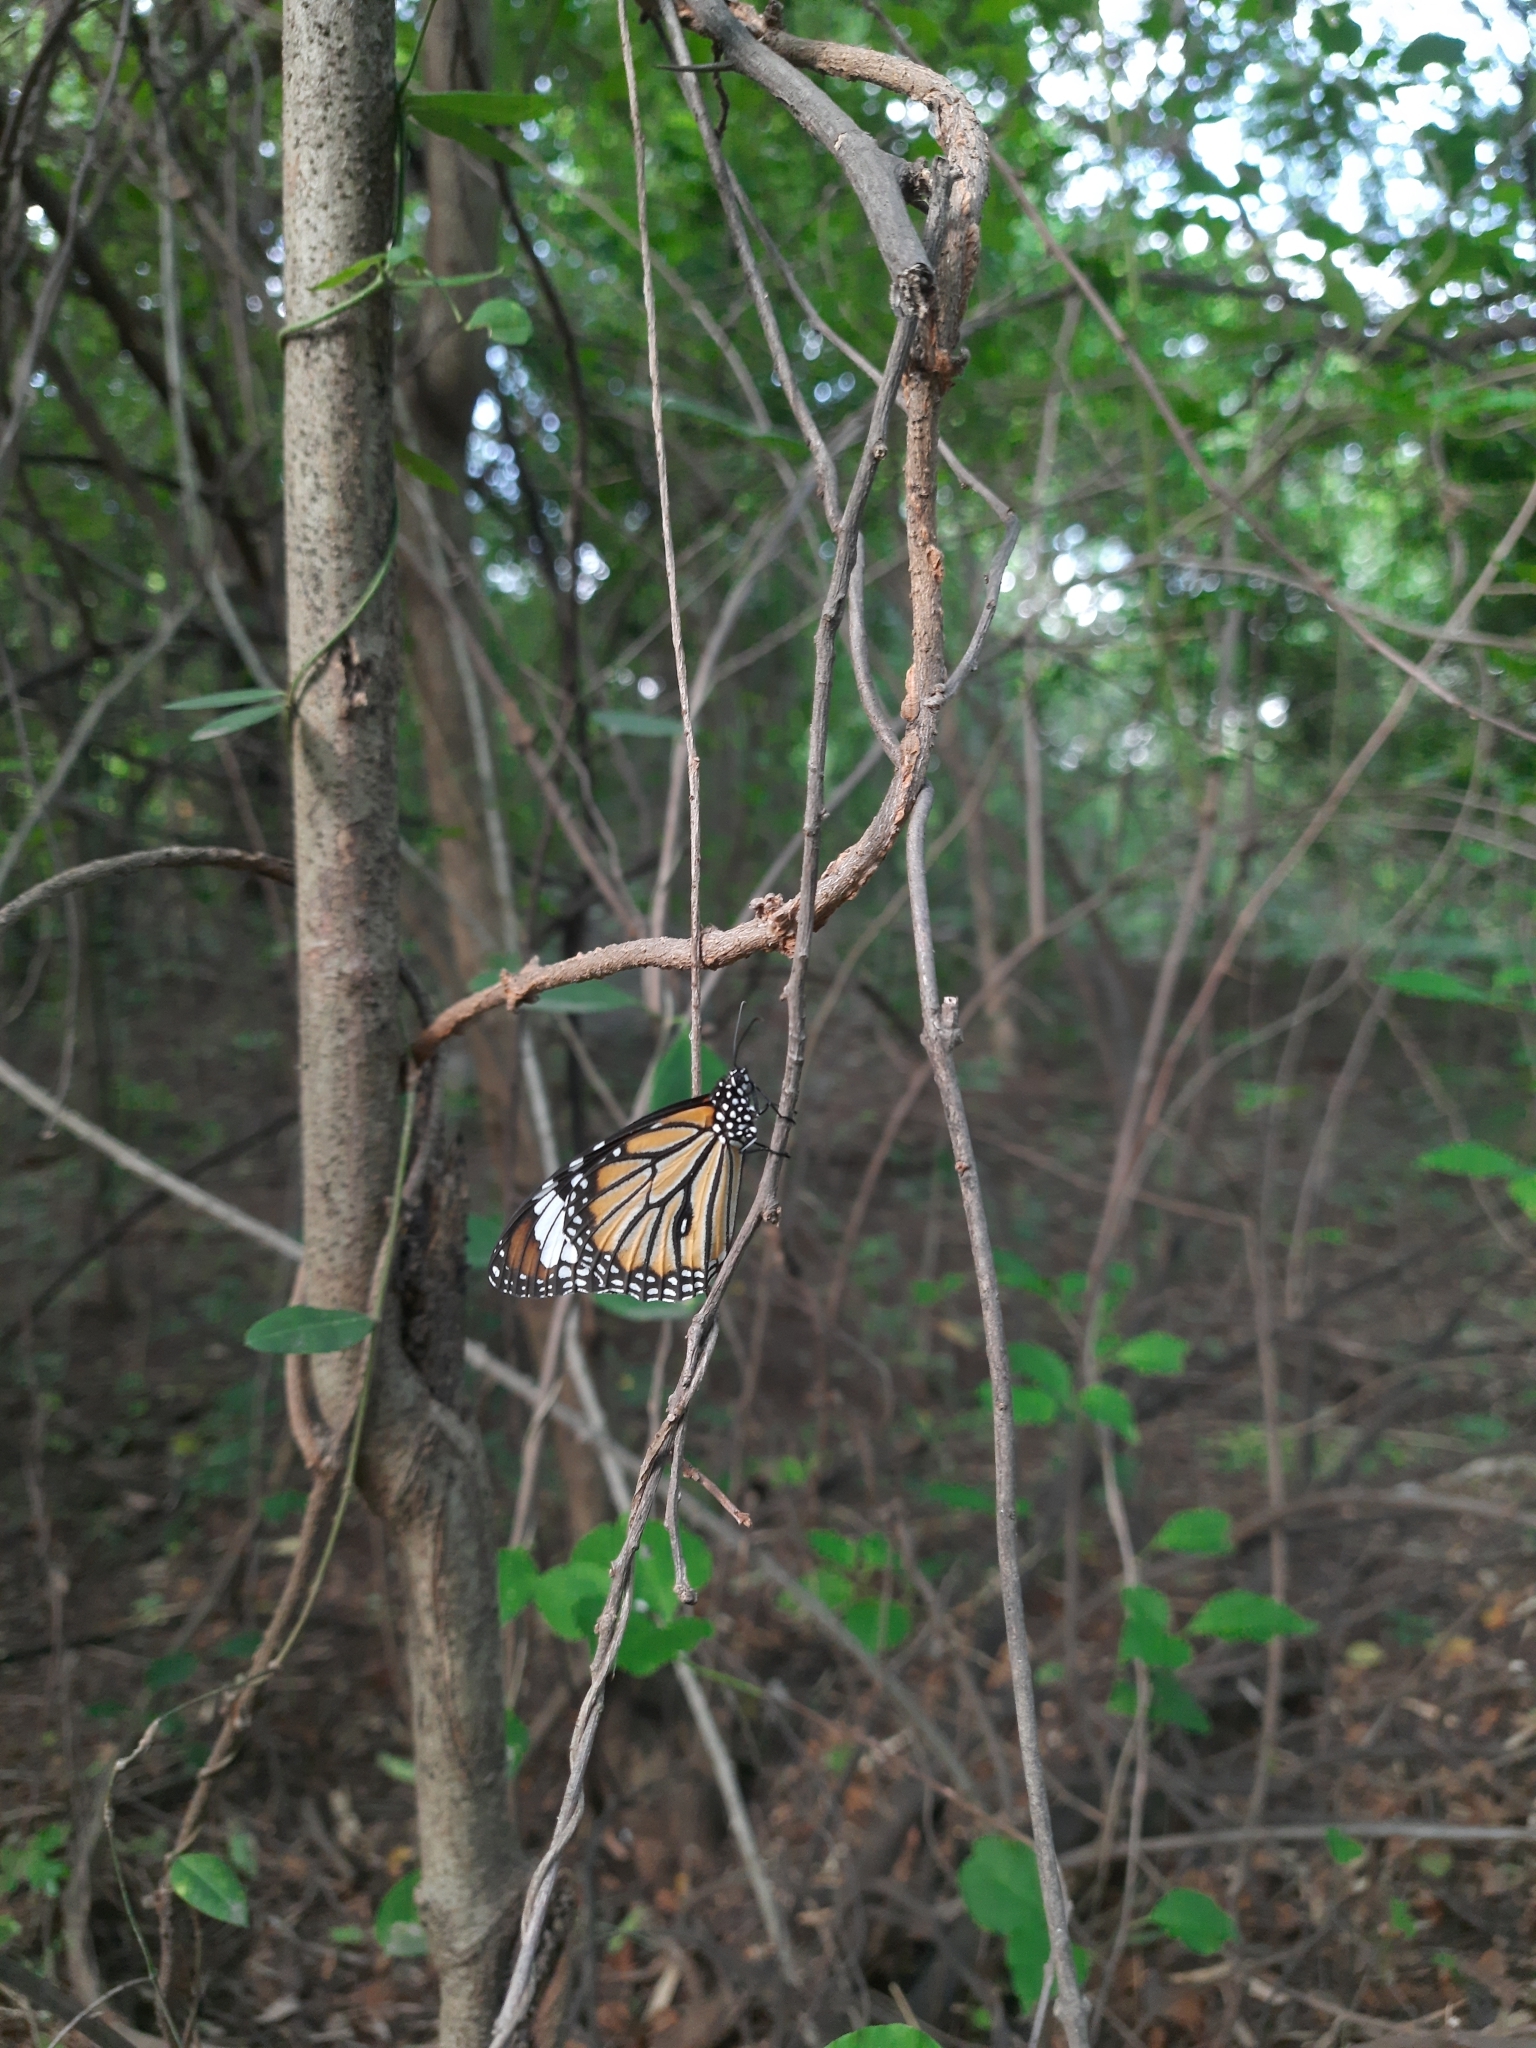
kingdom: Animalia
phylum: Arthropoda
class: Insecta
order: Lepidoptera
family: Nymphalidae
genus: Danaus
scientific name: Danaus genutia
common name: Common tiger butterfly
